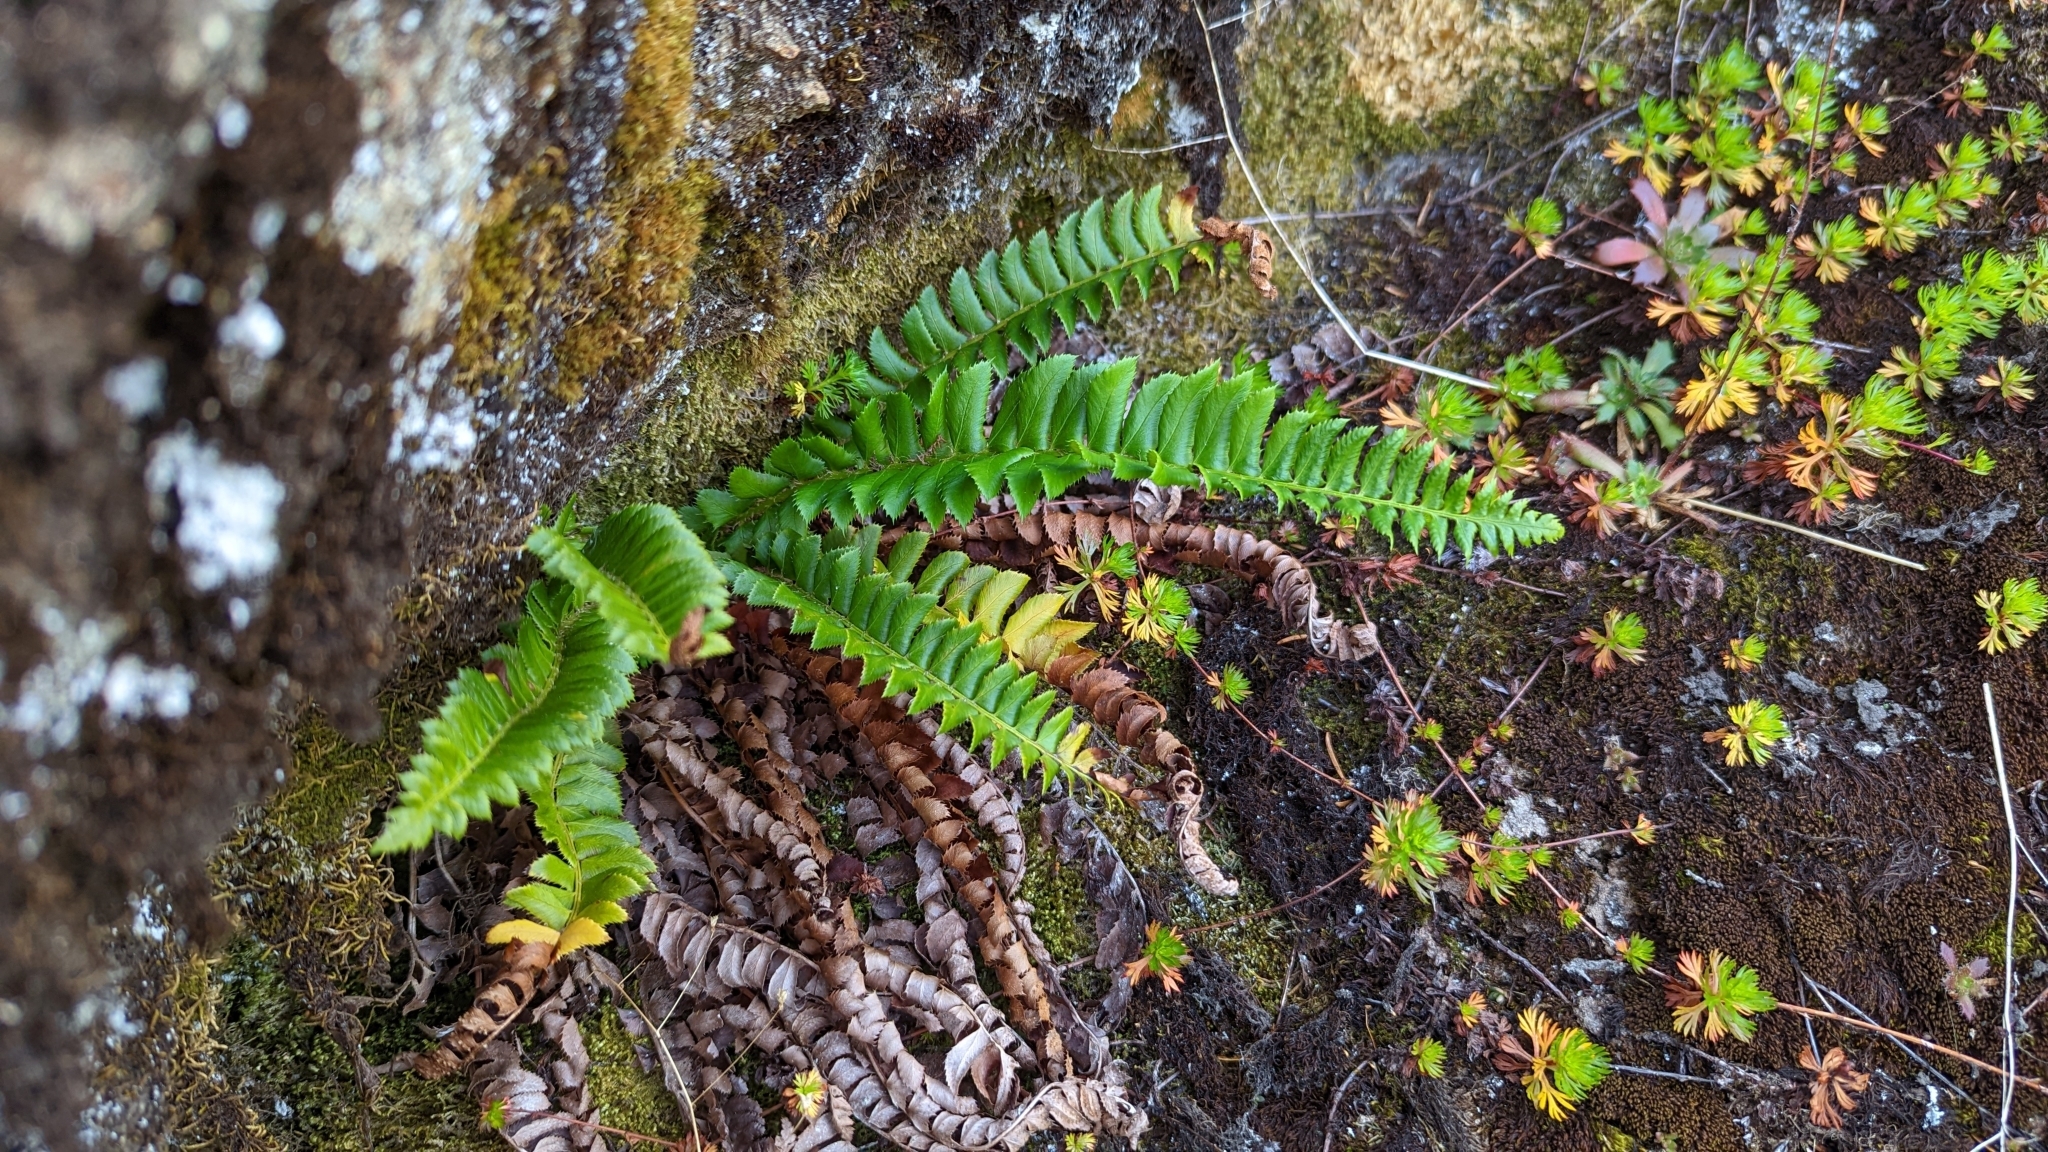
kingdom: Plantae
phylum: Tracheophyta
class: Polypodiopsida
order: Polypodiales
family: Dryopteridaceae
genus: Polystichum
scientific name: Polystichum lonchitis
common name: Holly fern
